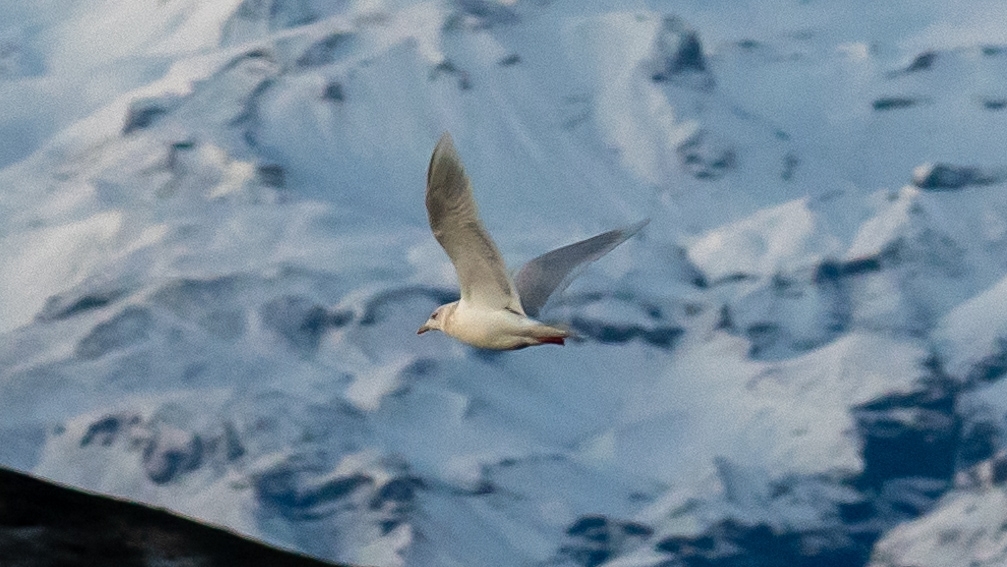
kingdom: Animalia
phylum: Chordata
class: Aves
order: Charadriiformes
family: Laridae
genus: Larus
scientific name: Larus glaucoides
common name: Iceland gull
